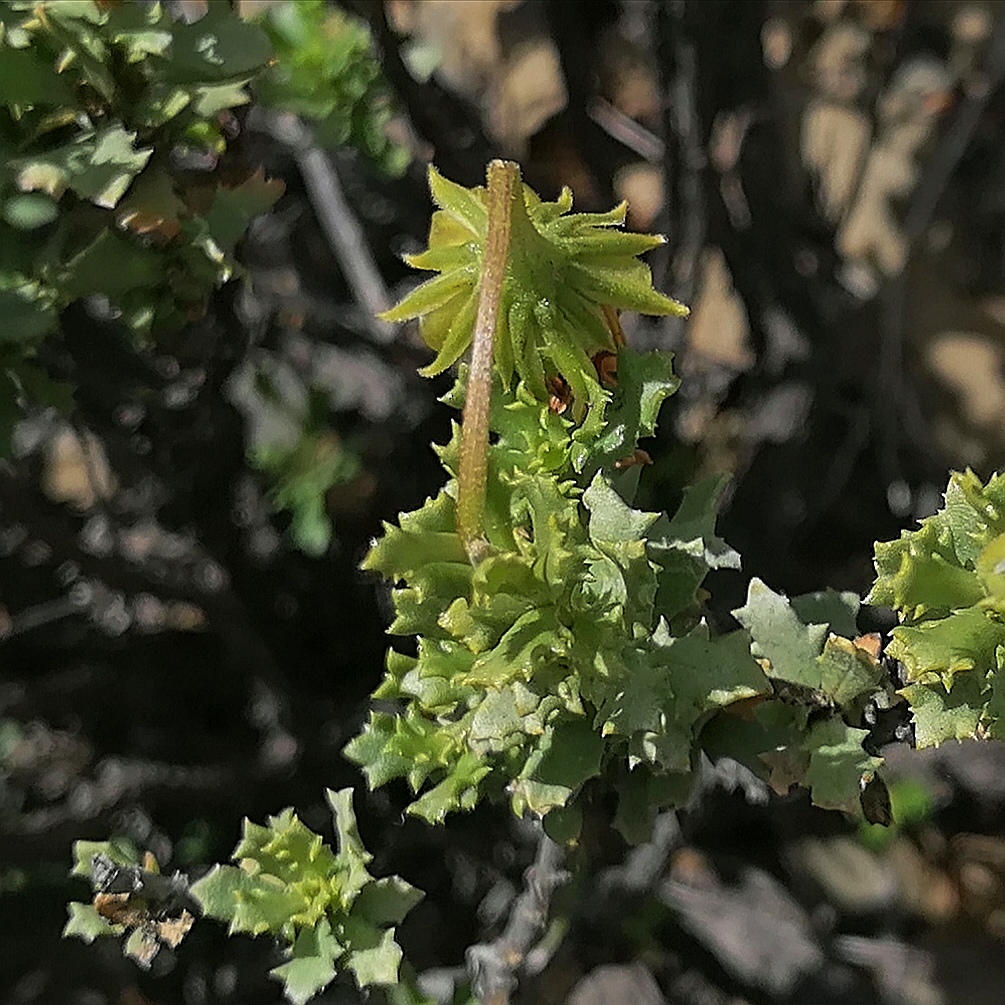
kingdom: Plantae
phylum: Tracheophyta
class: Magnoliopsida
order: Asterales
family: Asteraceae
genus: Dimorphotheca
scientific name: Dimorphotheca cuneata
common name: Daisy
